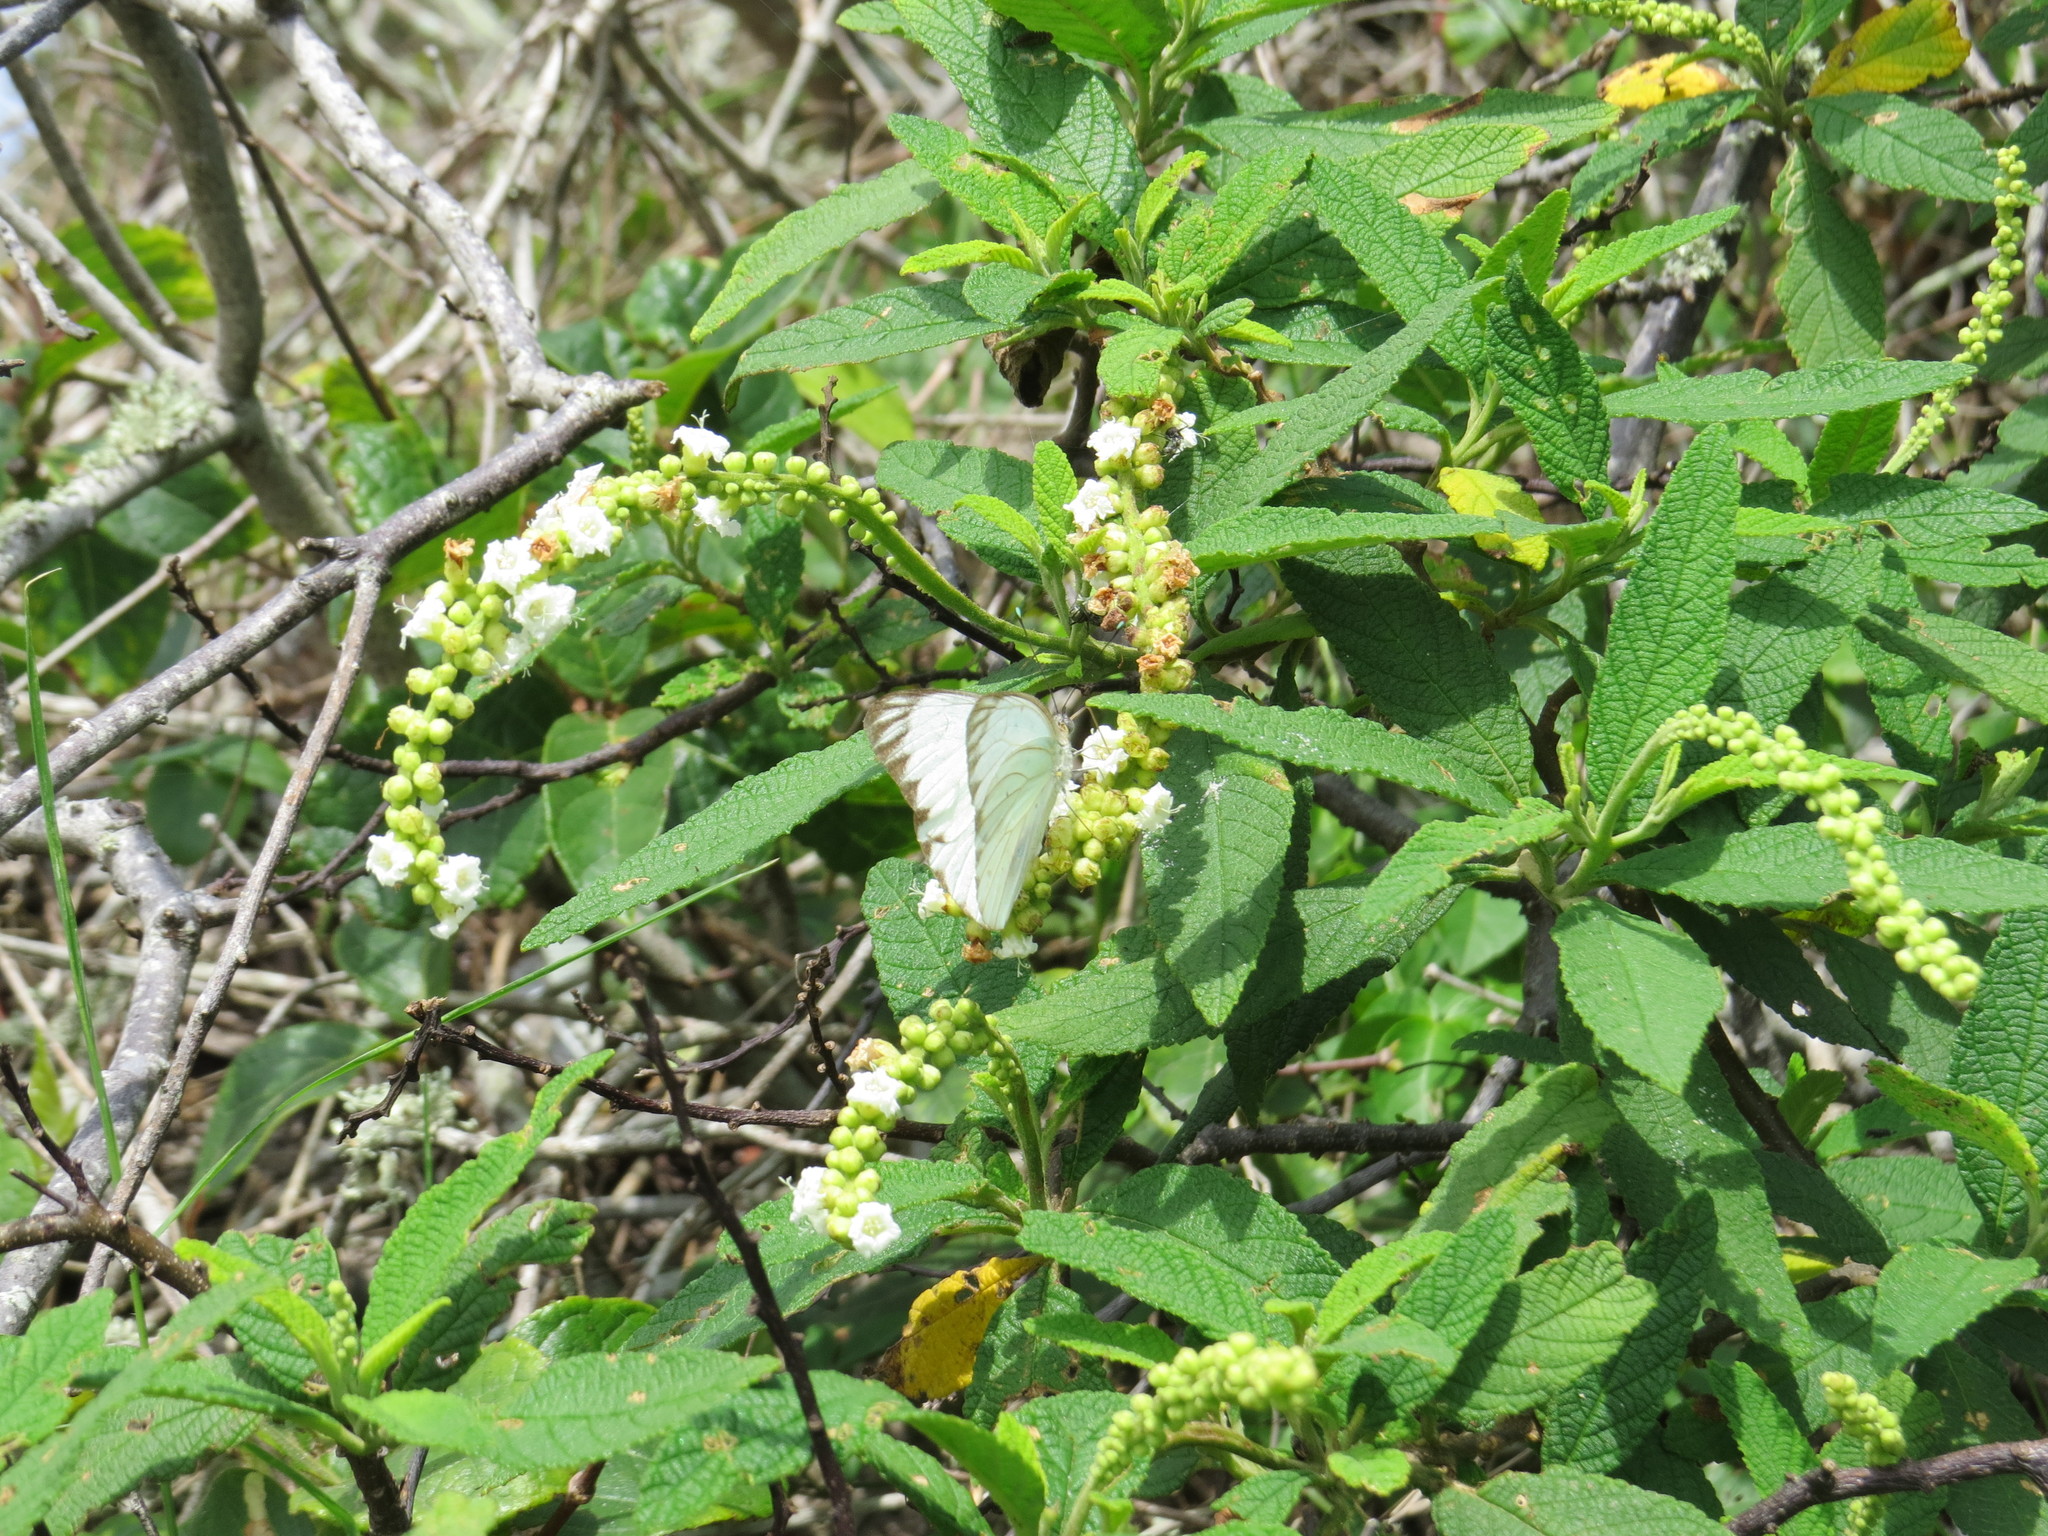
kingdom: Plantae
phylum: Tracheophyta
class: Magnoliopsida
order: Boraginales
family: Cordiaceae
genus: Varronia
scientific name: Varronia curassavica
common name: Black sage
